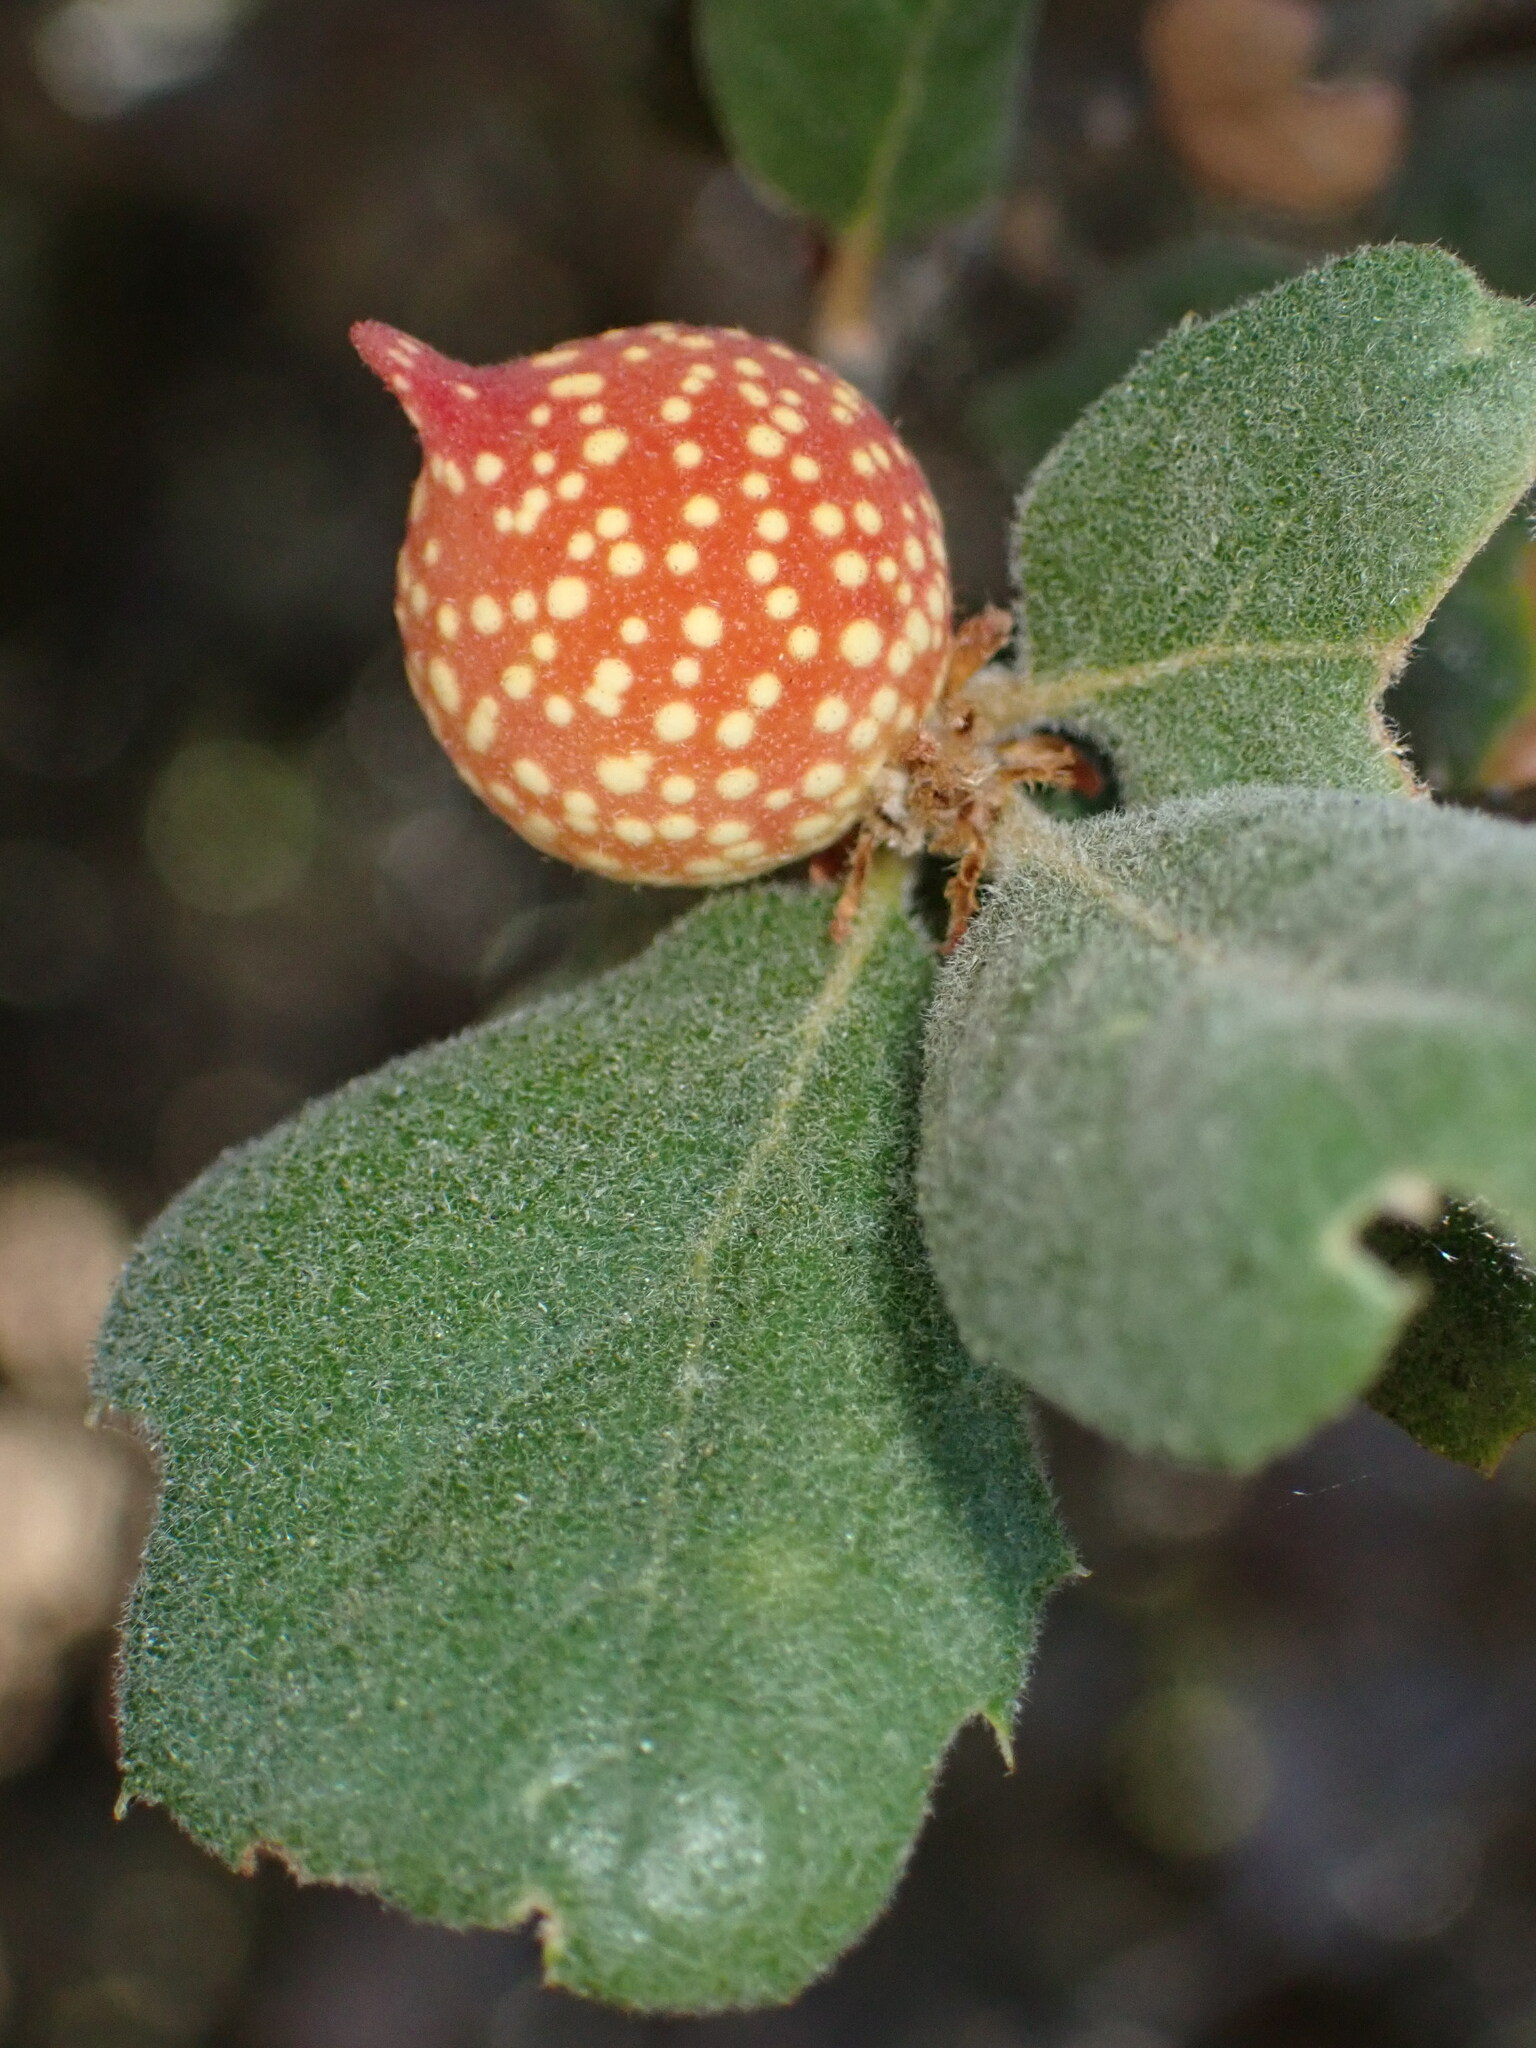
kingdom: Animalia
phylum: Arthropoda
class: Insecta
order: Hymenoptera
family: Cynipidae
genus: Burnettweldia
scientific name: Burnettweldia
